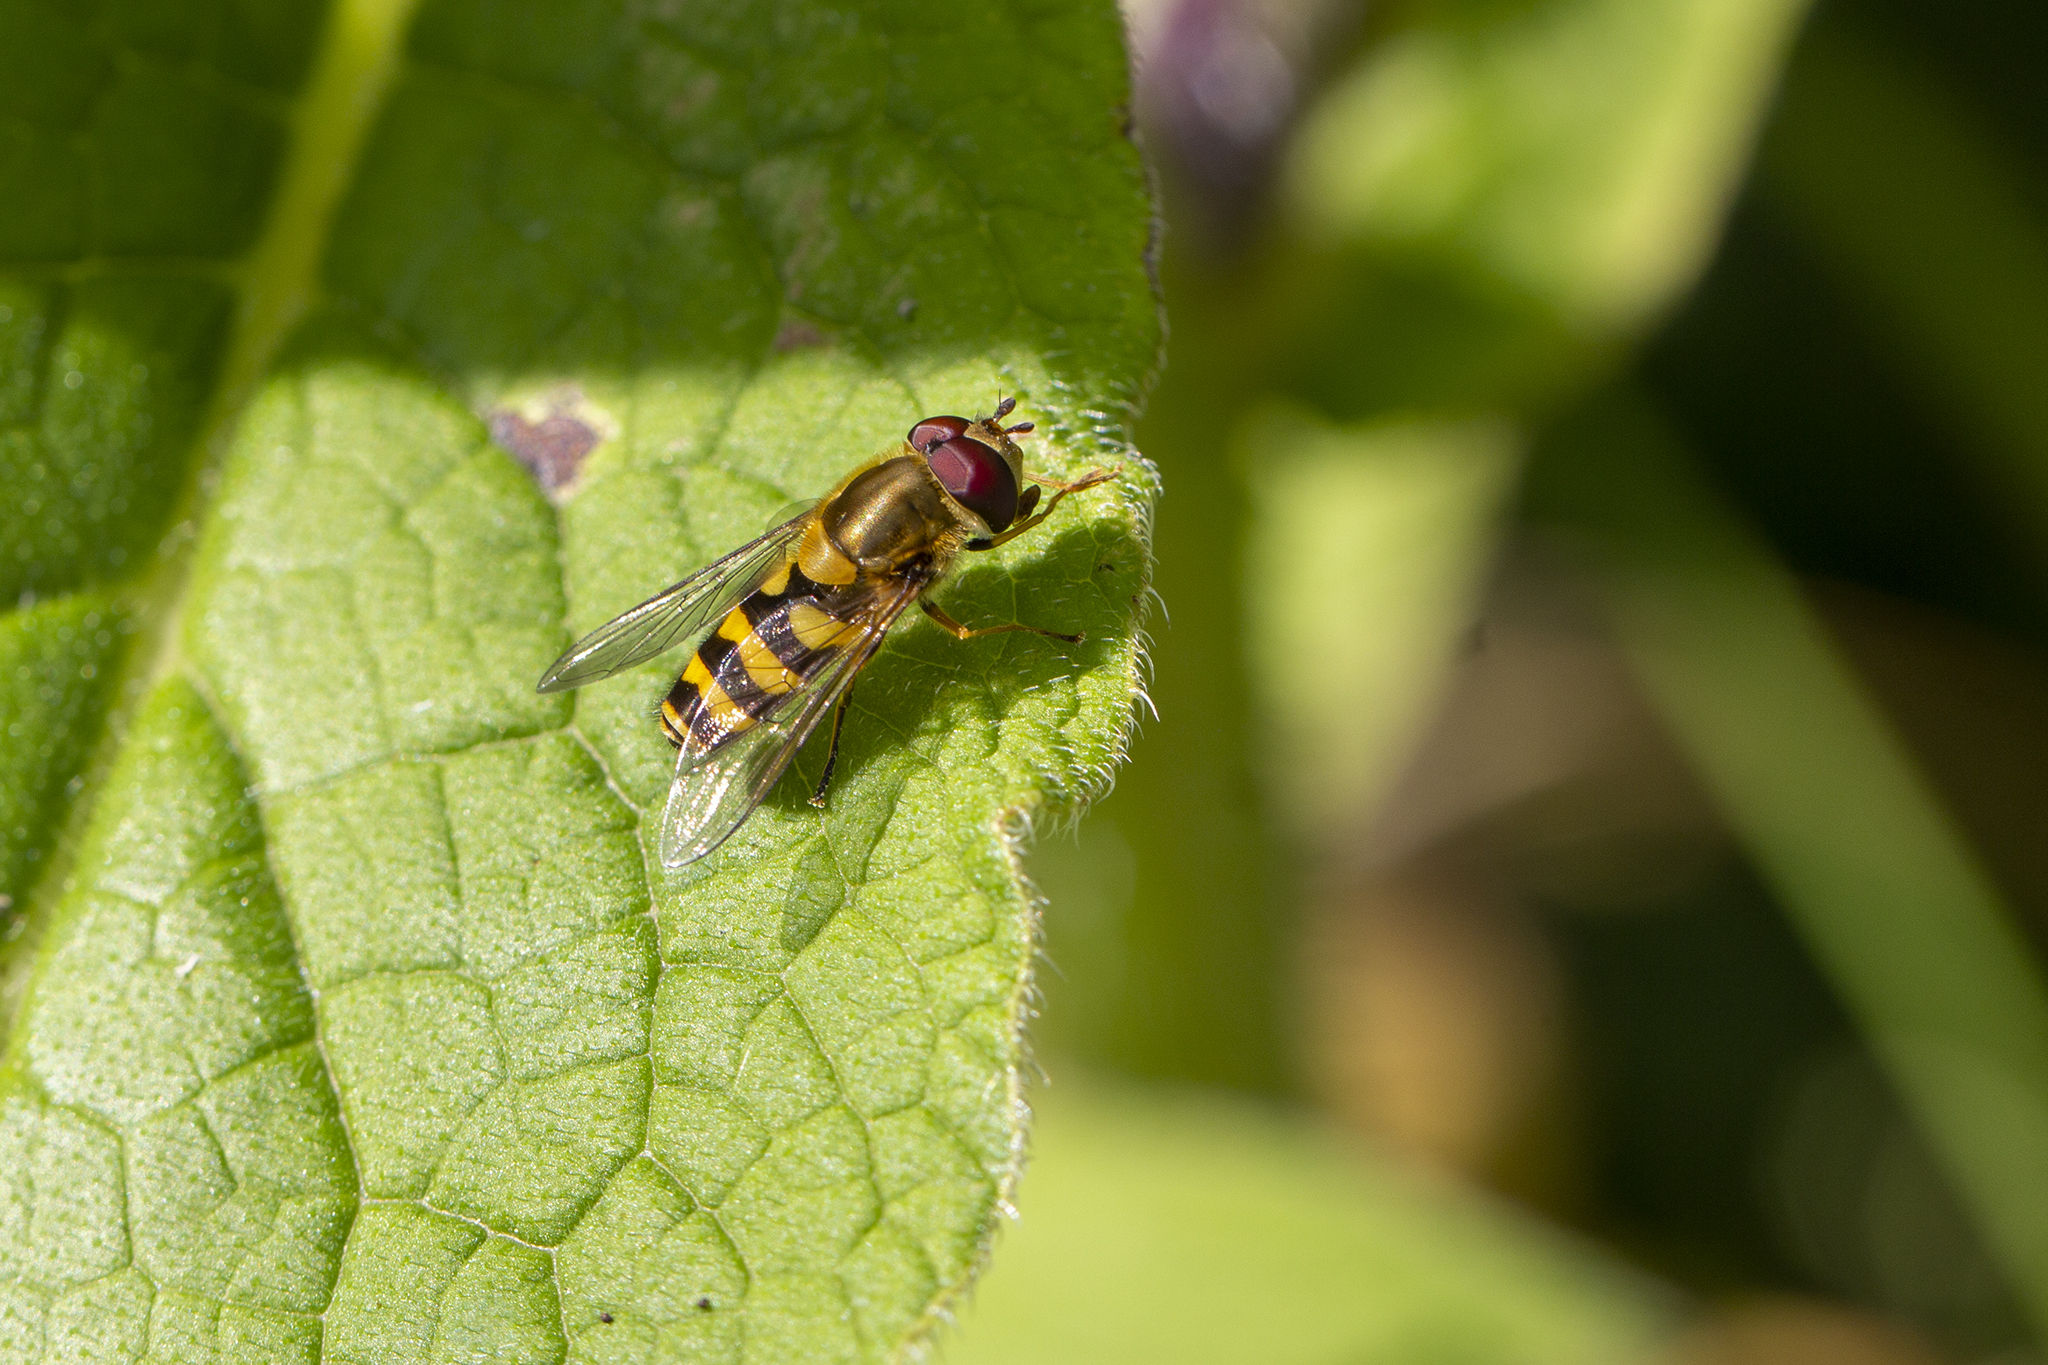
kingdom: Animalia
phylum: Arthropoda
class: Insecta
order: Diptera
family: Syrphidae
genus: Syrphus
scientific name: Syrphus
